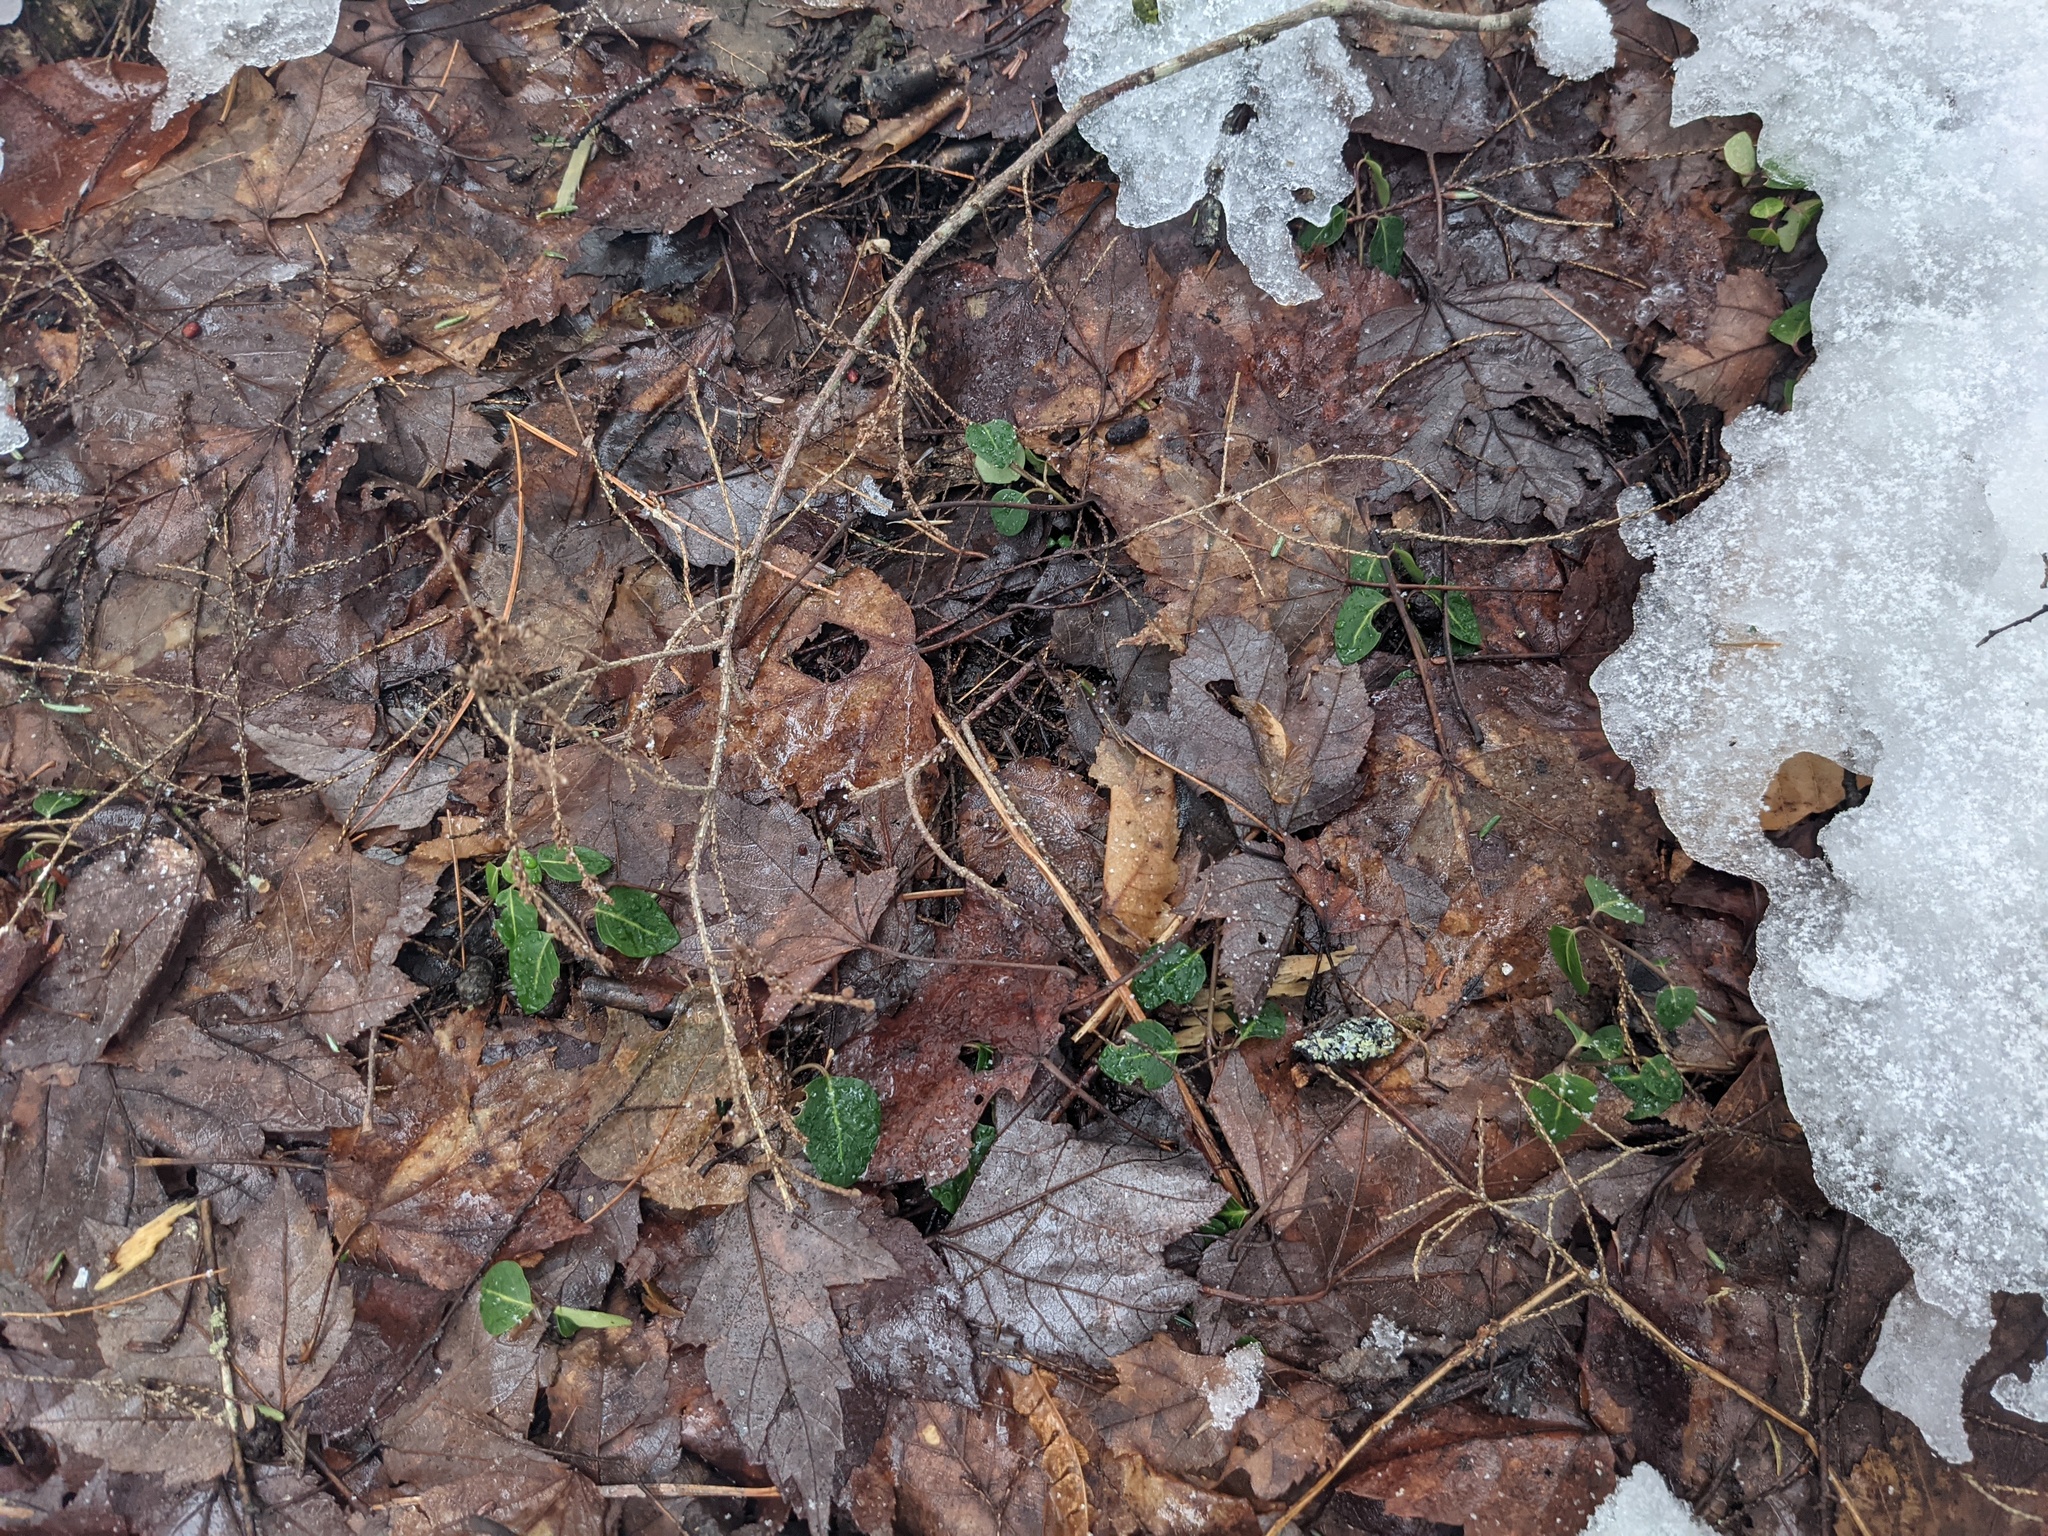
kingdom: Plantae
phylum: Tracheophyta
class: Magnoliopsida
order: Gentianales
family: Rubiaceae
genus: Mitchella
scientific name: Mitchella repens
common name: Partridge-berry
